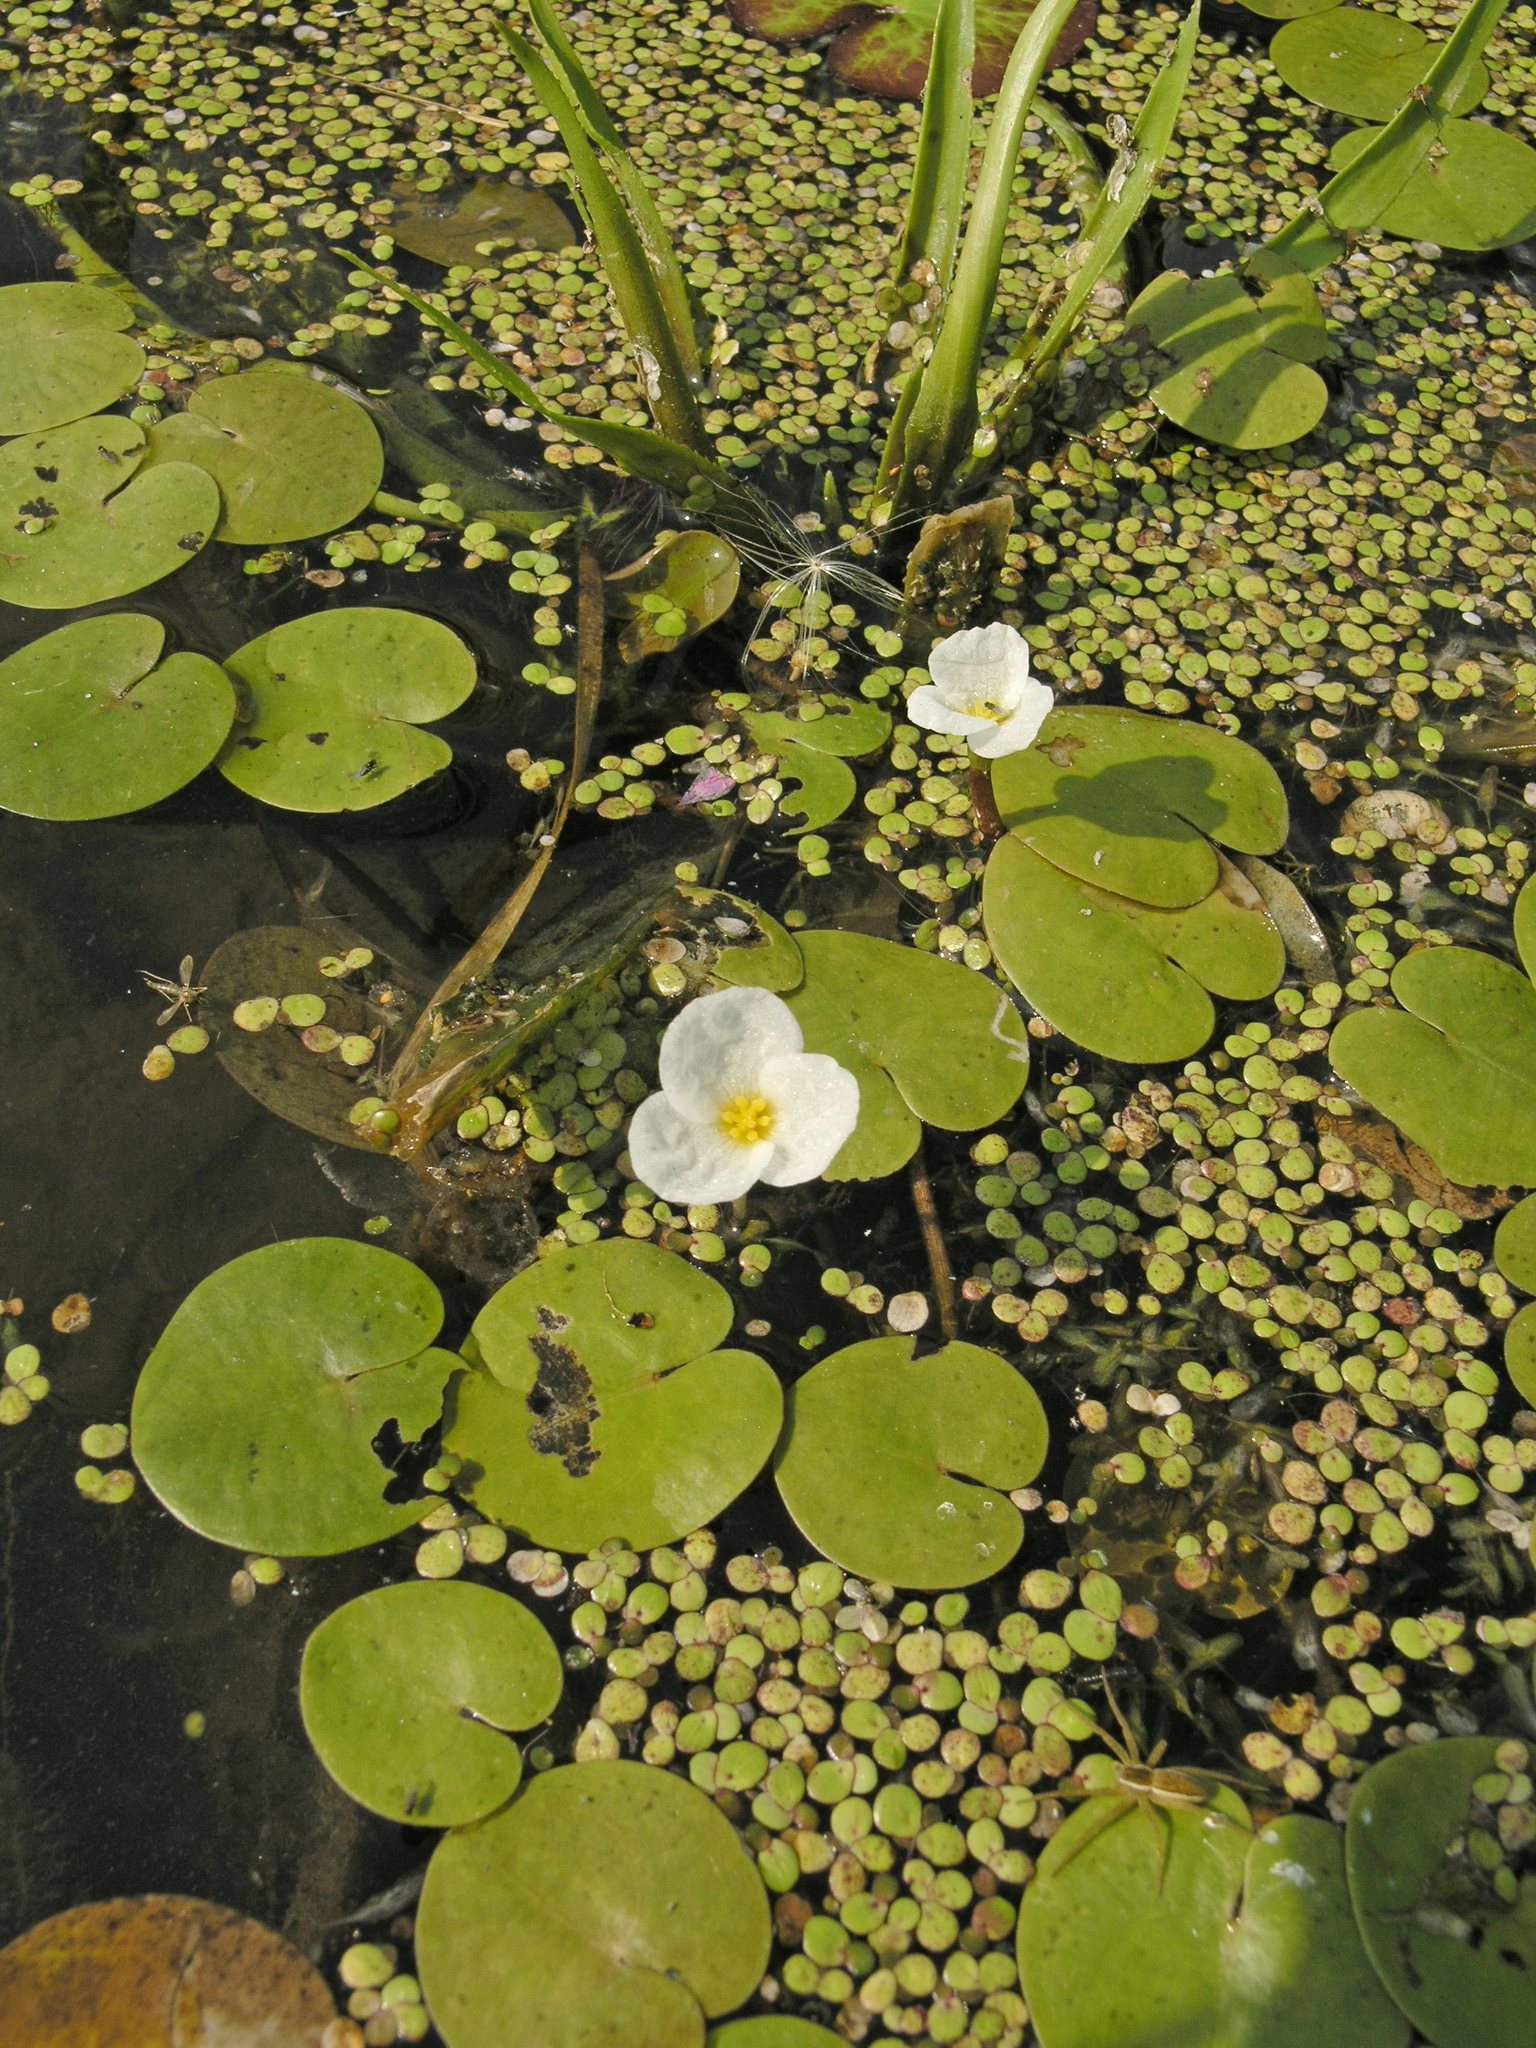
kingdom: Plantae
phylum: Tracheophyta
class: Liliopsida
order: Alismatales
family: Hydrocharitaceae
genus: Hydrocharis
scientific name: Hydrocharis morsus-ranae
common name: Frogbit
